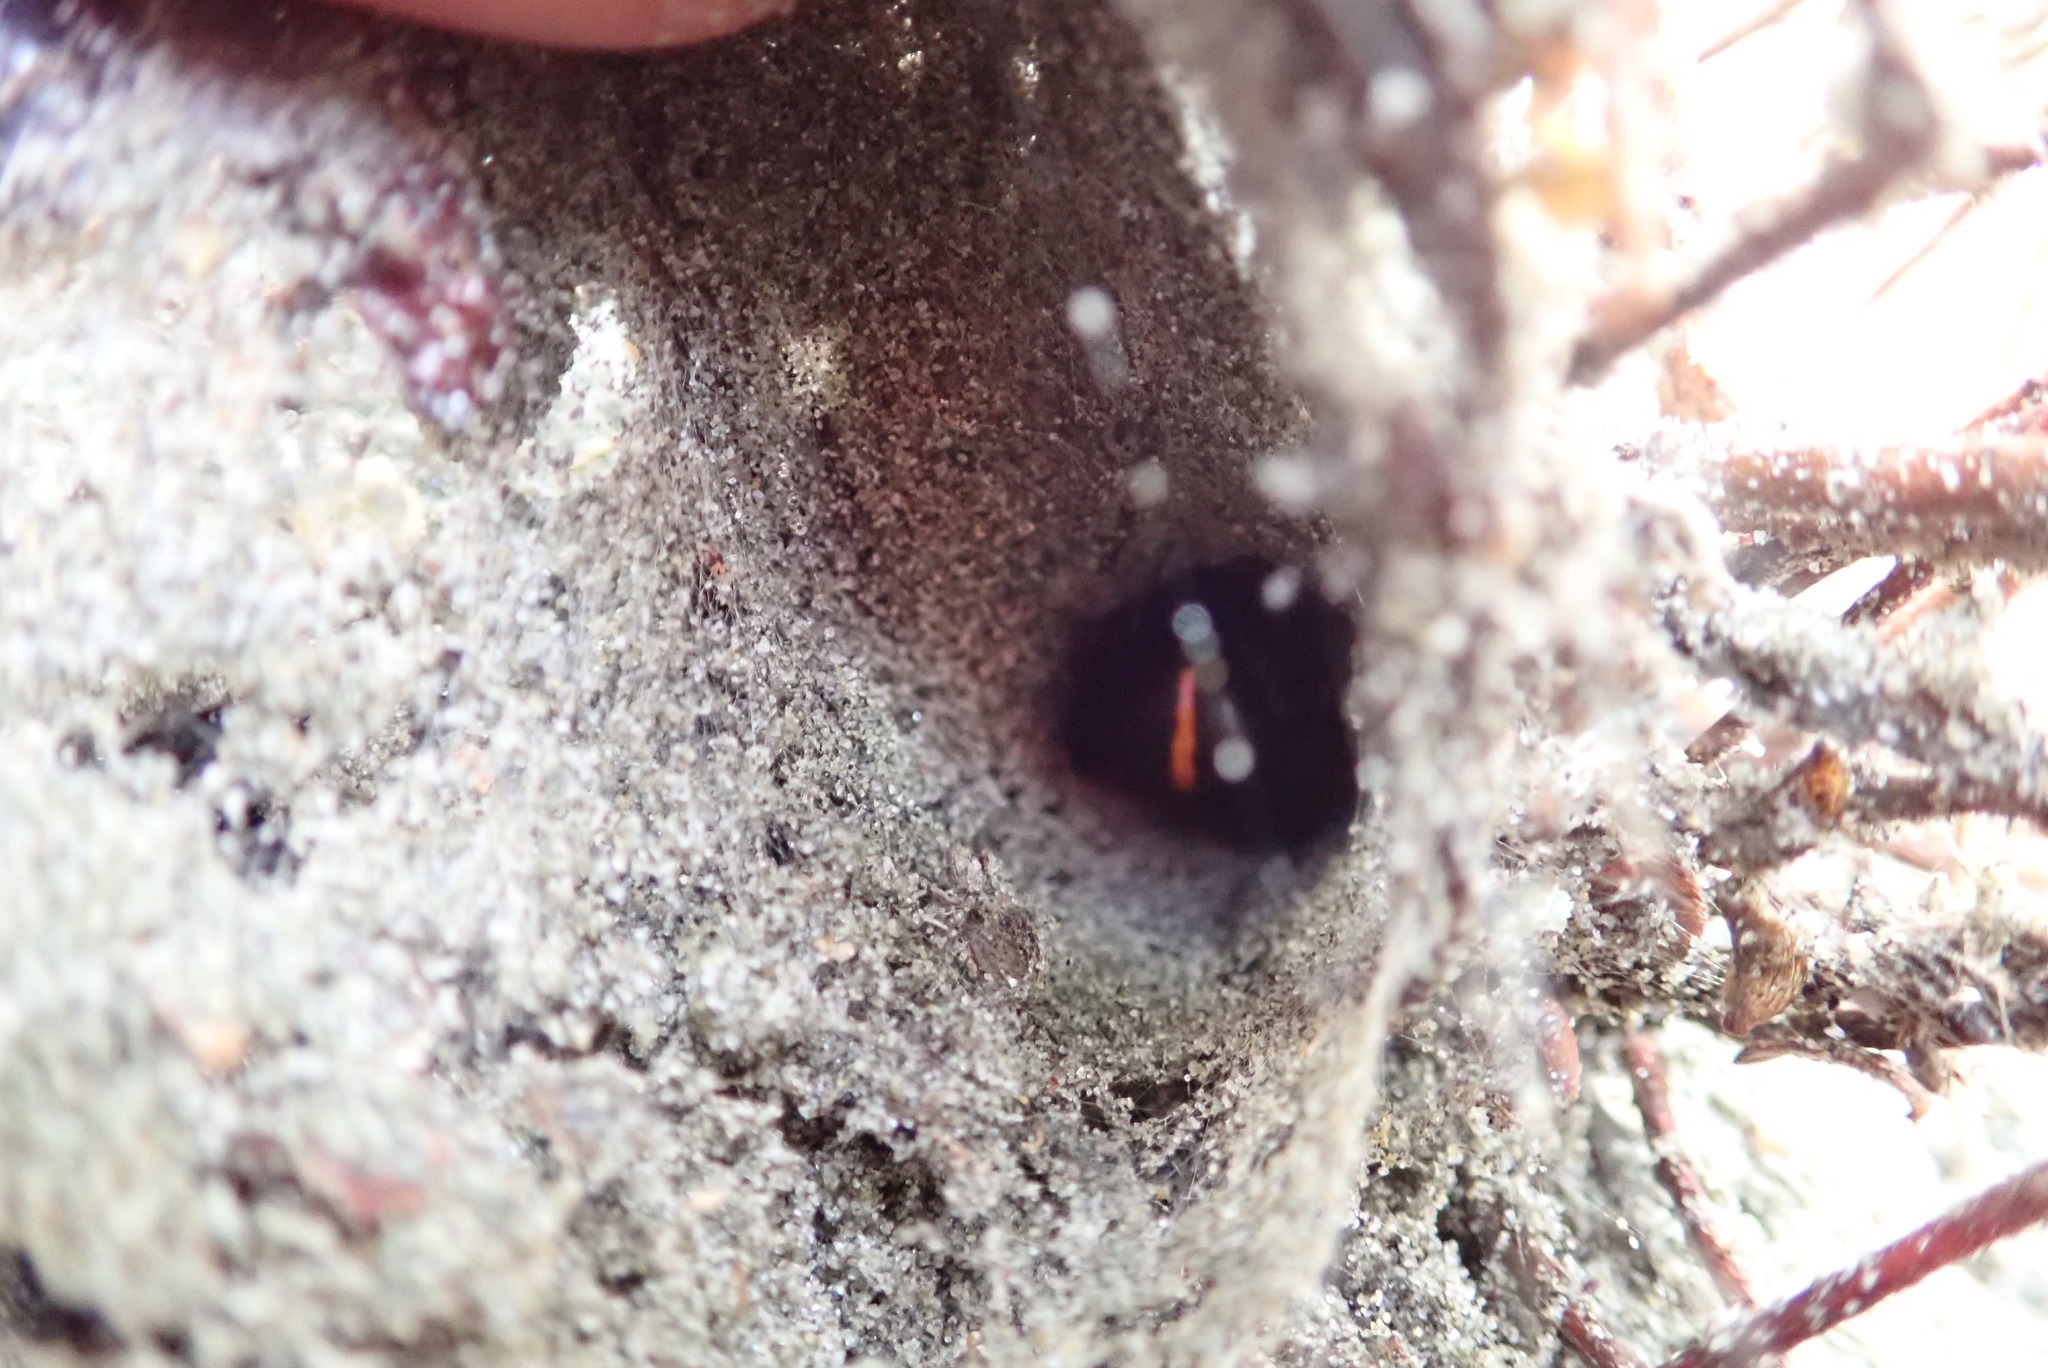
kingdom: Animalia
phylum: Arthropoda
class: Arachnida
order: Araneae
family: Theridiidae
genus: Latrodectus
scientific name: Latrodectus katipo
